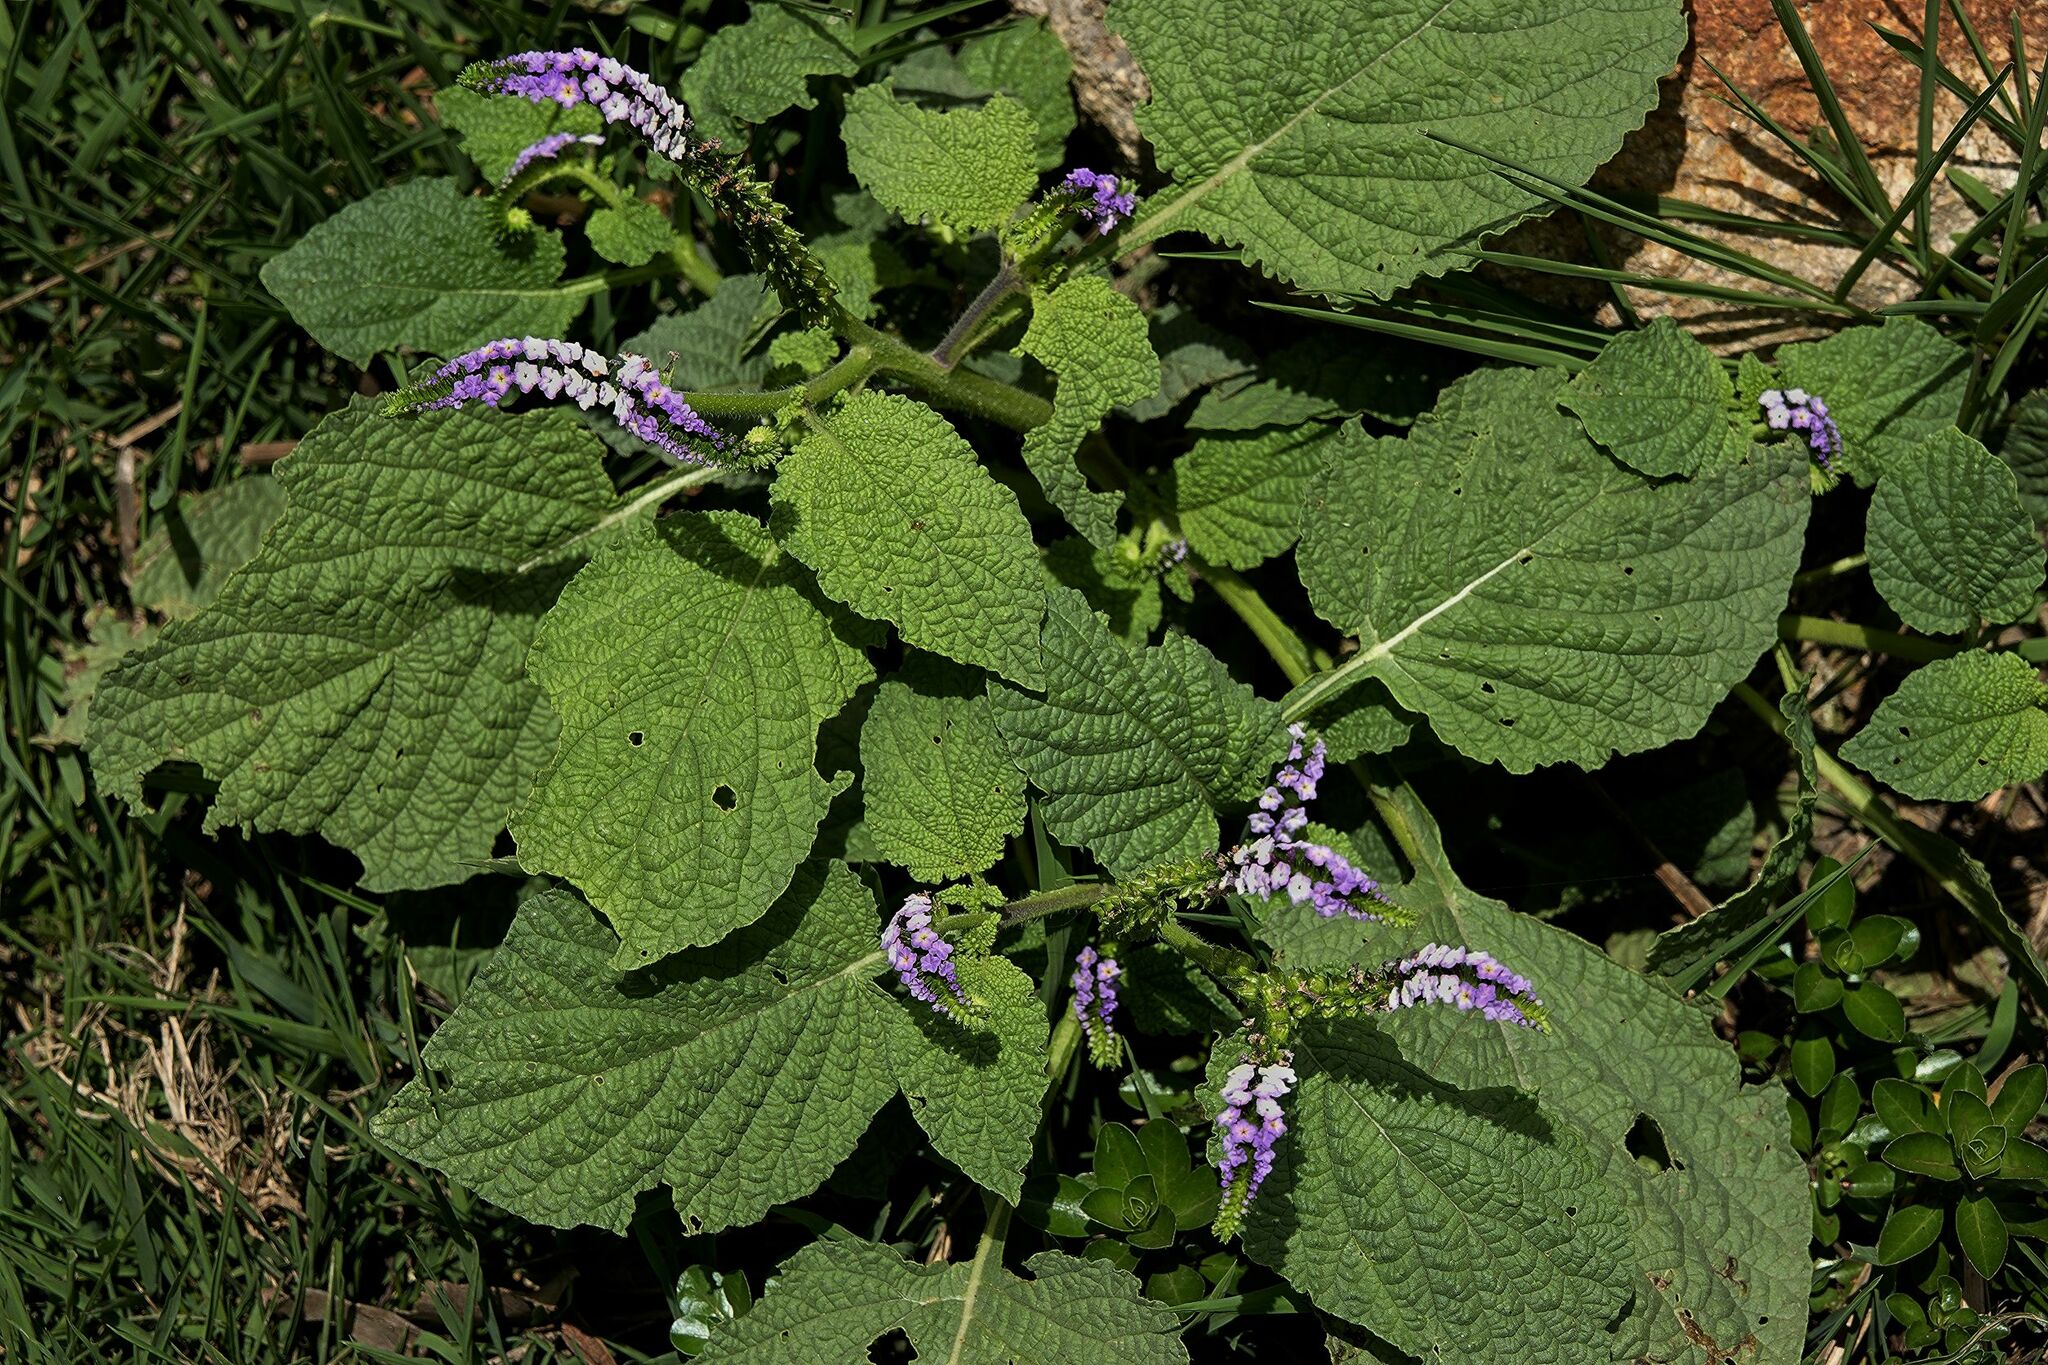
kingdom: Plantae
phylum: Tracheophyta
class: Magnoliopsida
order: Boraginales
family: Heliotropiaceae
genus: Heliotropium
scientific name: Heliotropium indicum
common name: Indian heliotrope
